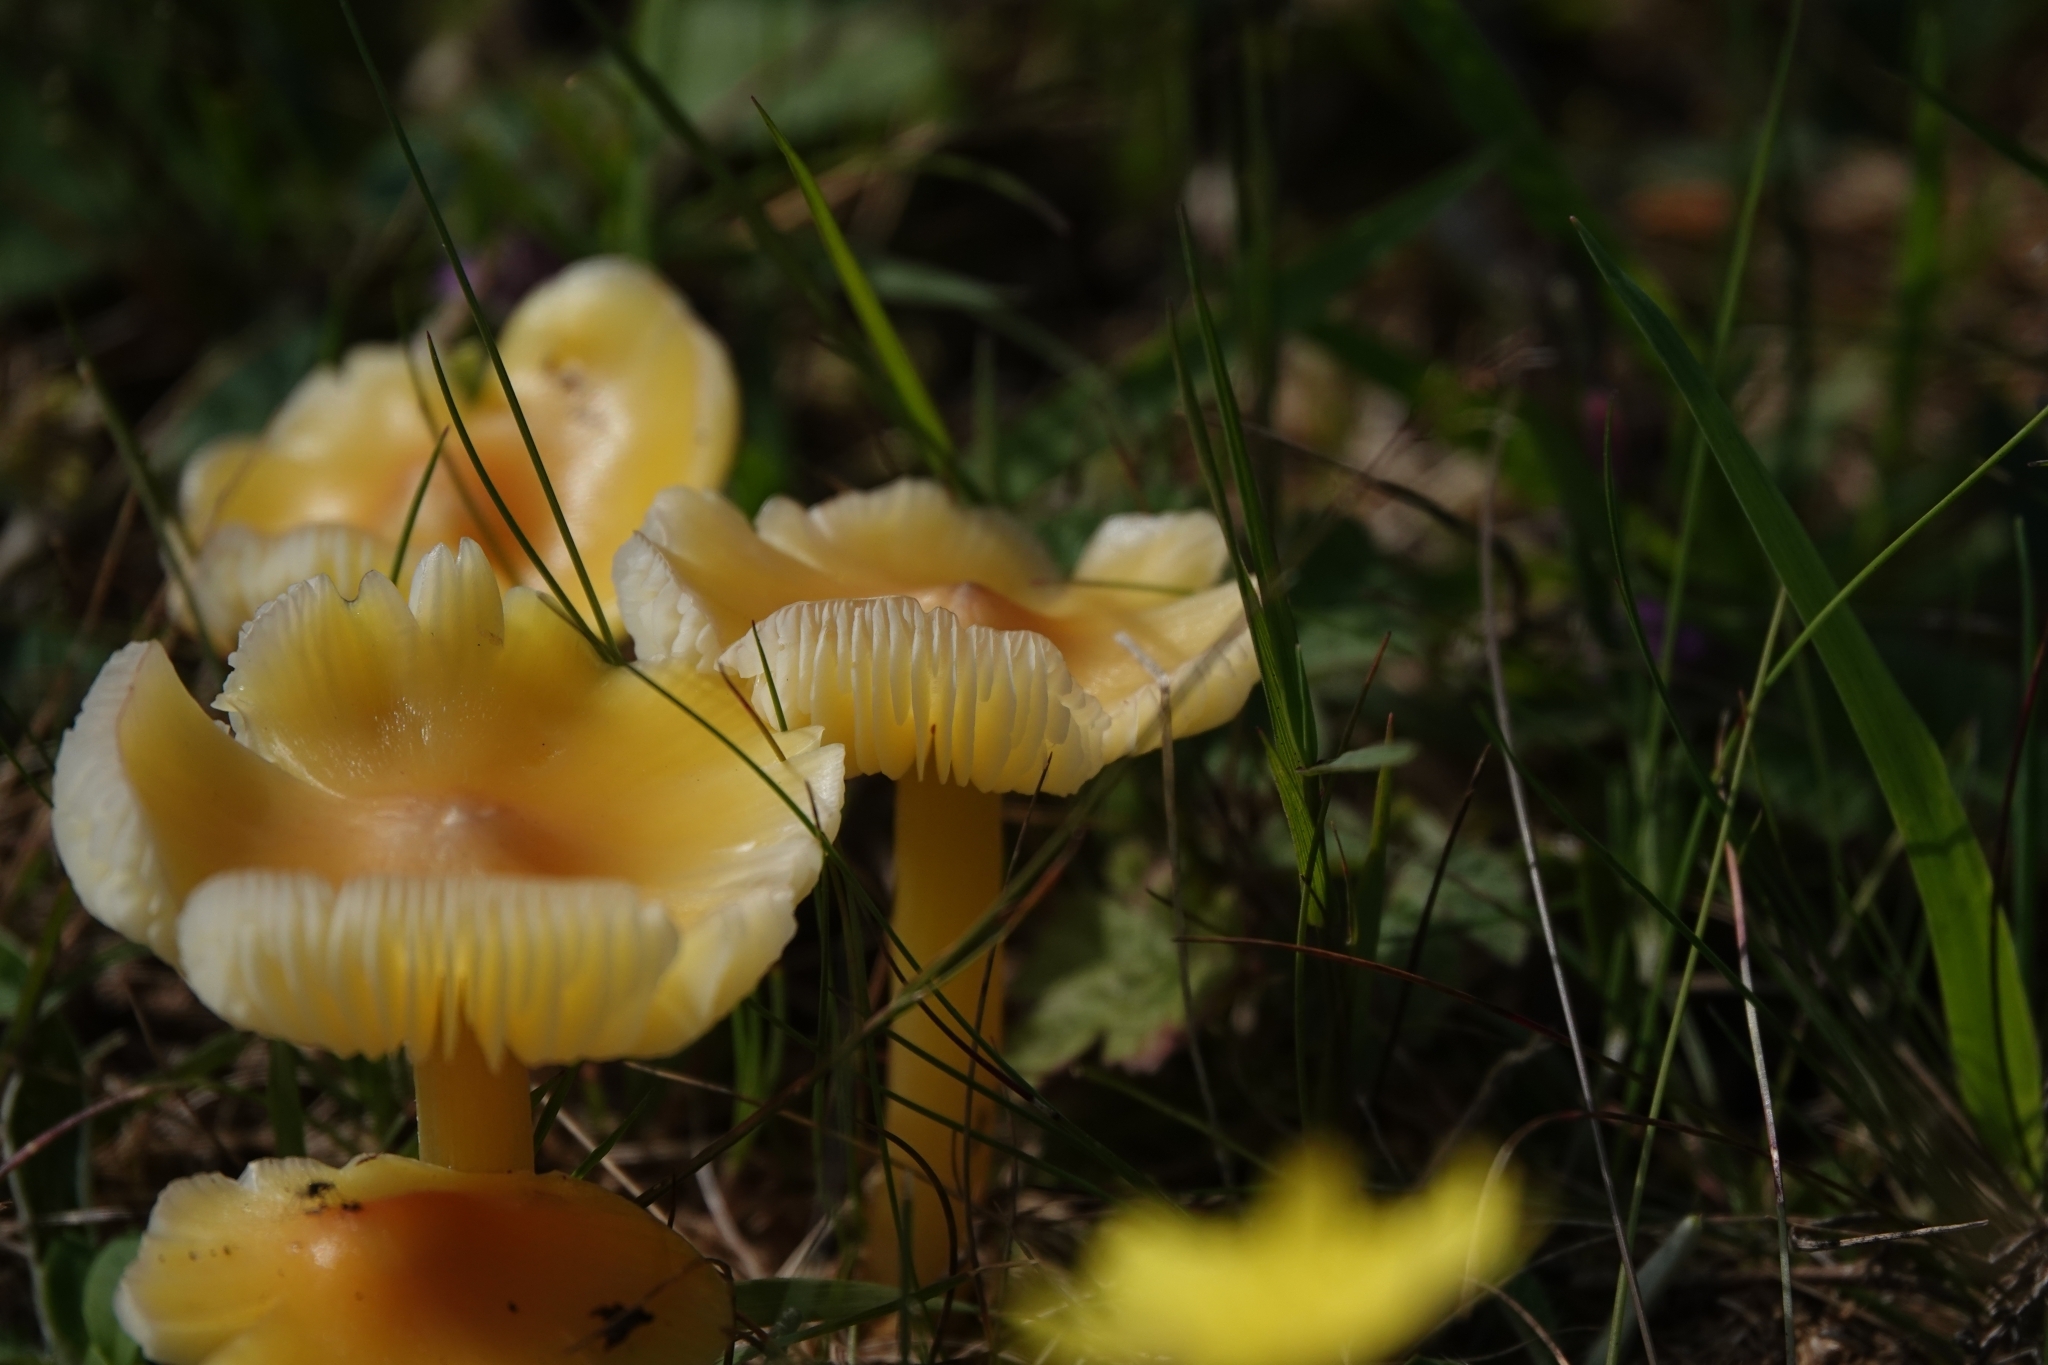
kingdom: Fungi
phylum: Basidiomycota
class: Agaricomycetes
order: Agaricales
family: Hygrophoraceae
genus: Hygrocybe
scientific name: Hygrocybe acutoconica
